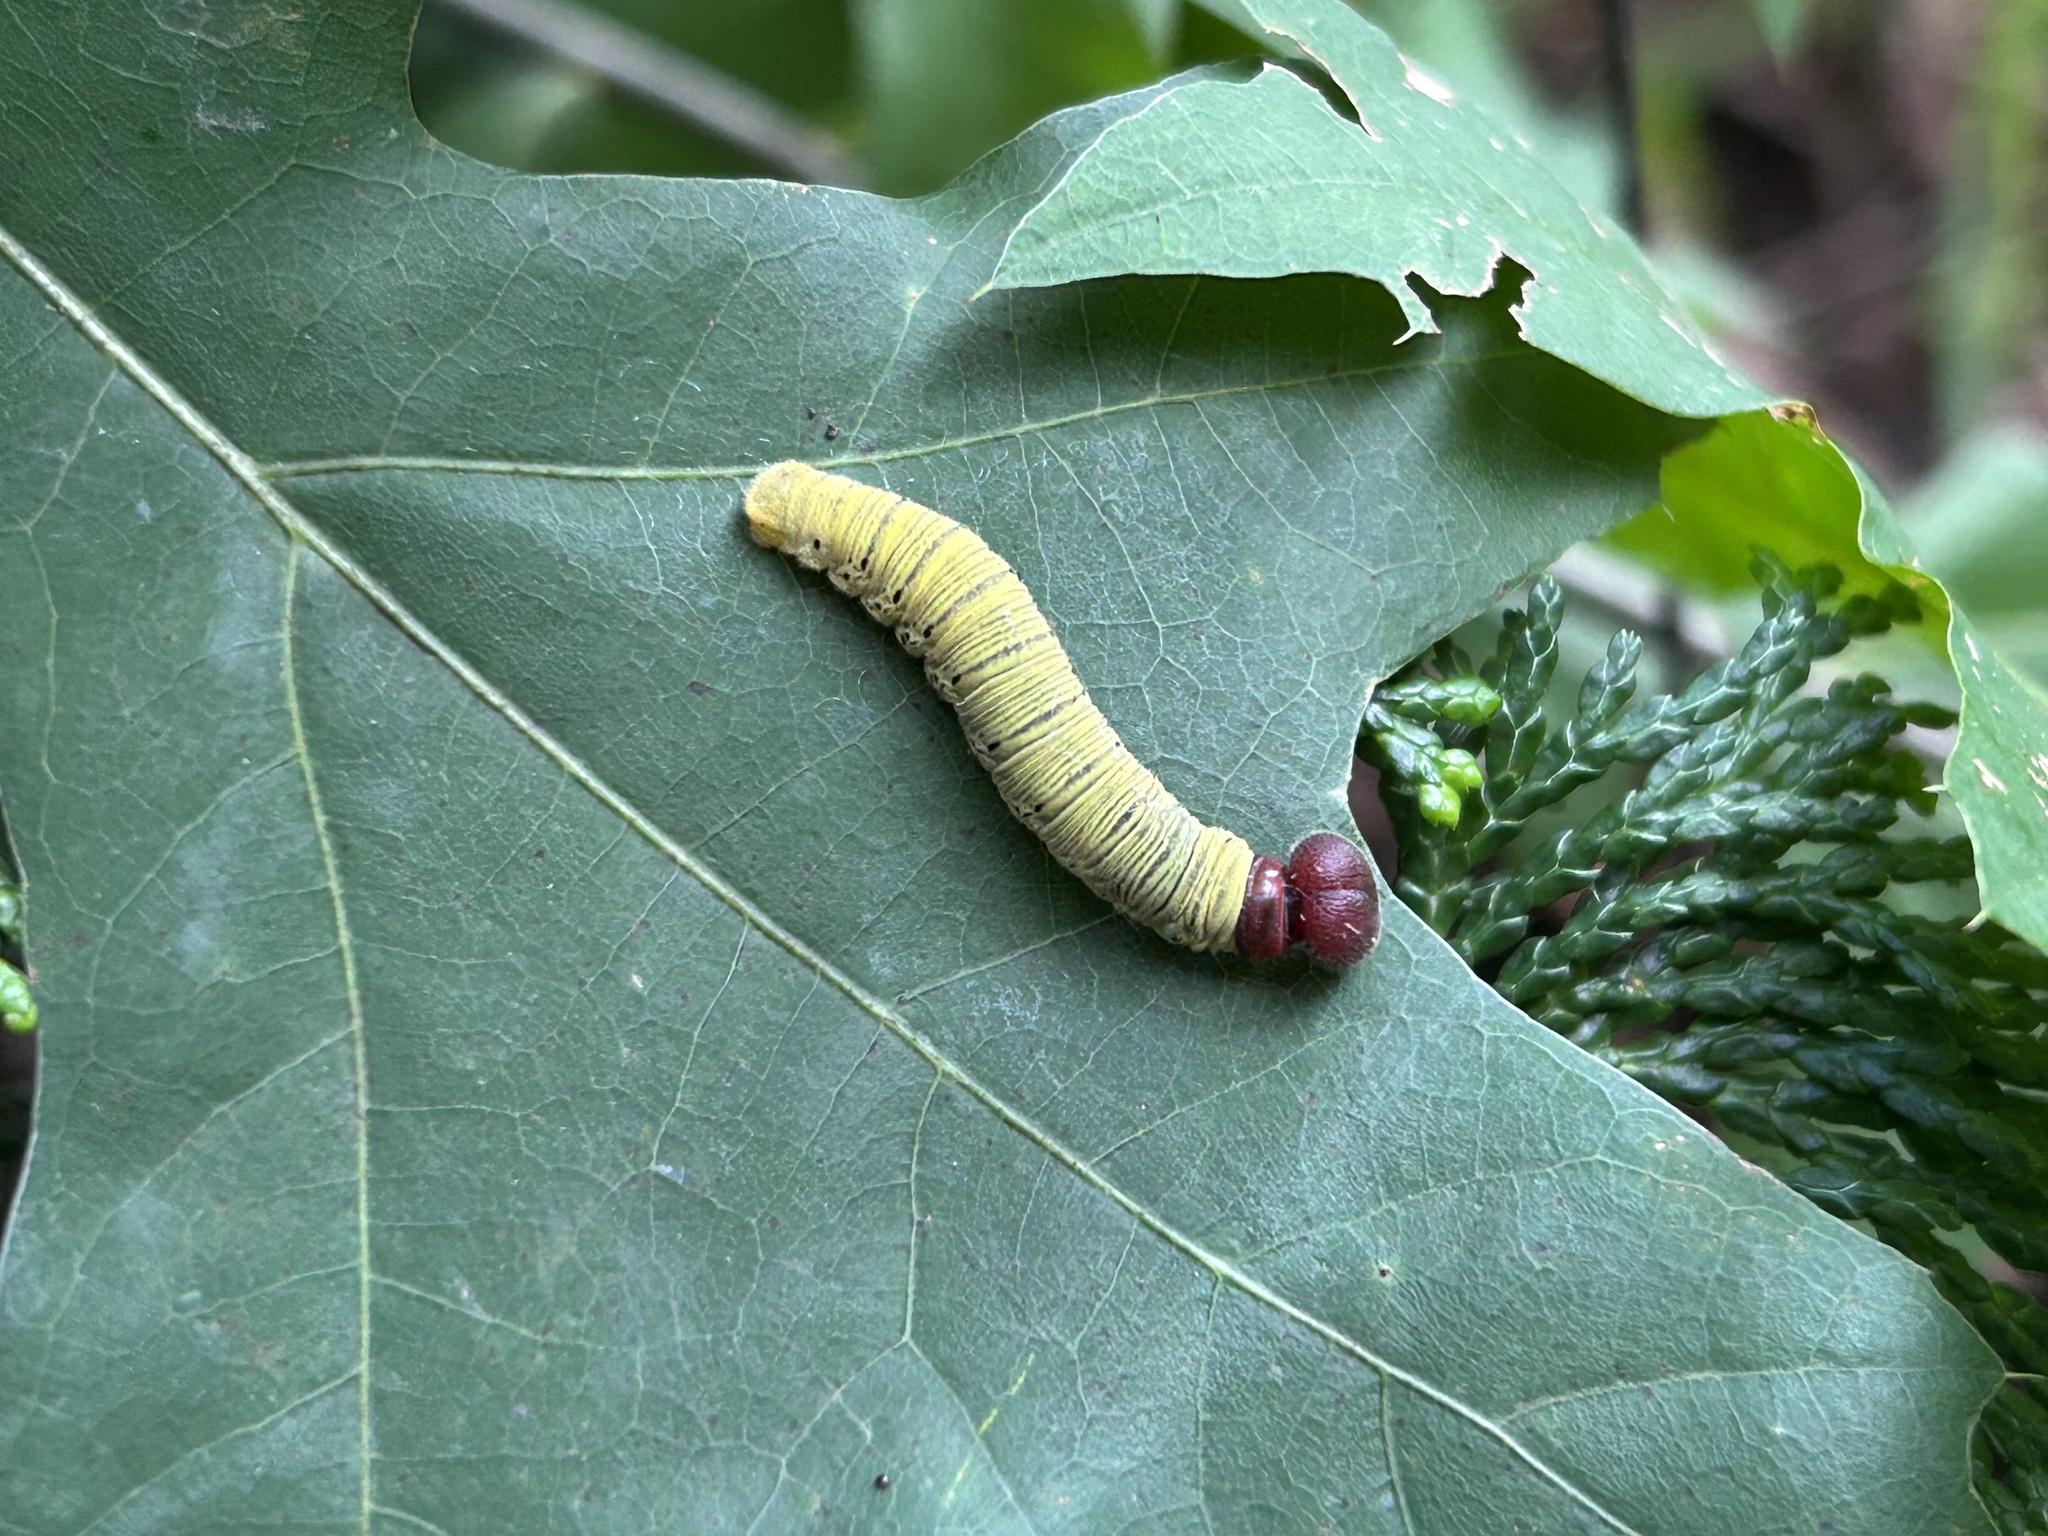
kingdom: Animalia
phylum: Arthropoda
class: Insecta
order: Lepidoptera
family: Hesperiidae
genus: Epargyreus
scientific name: Epargyreus clarus
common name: Silver-spotted skipper
